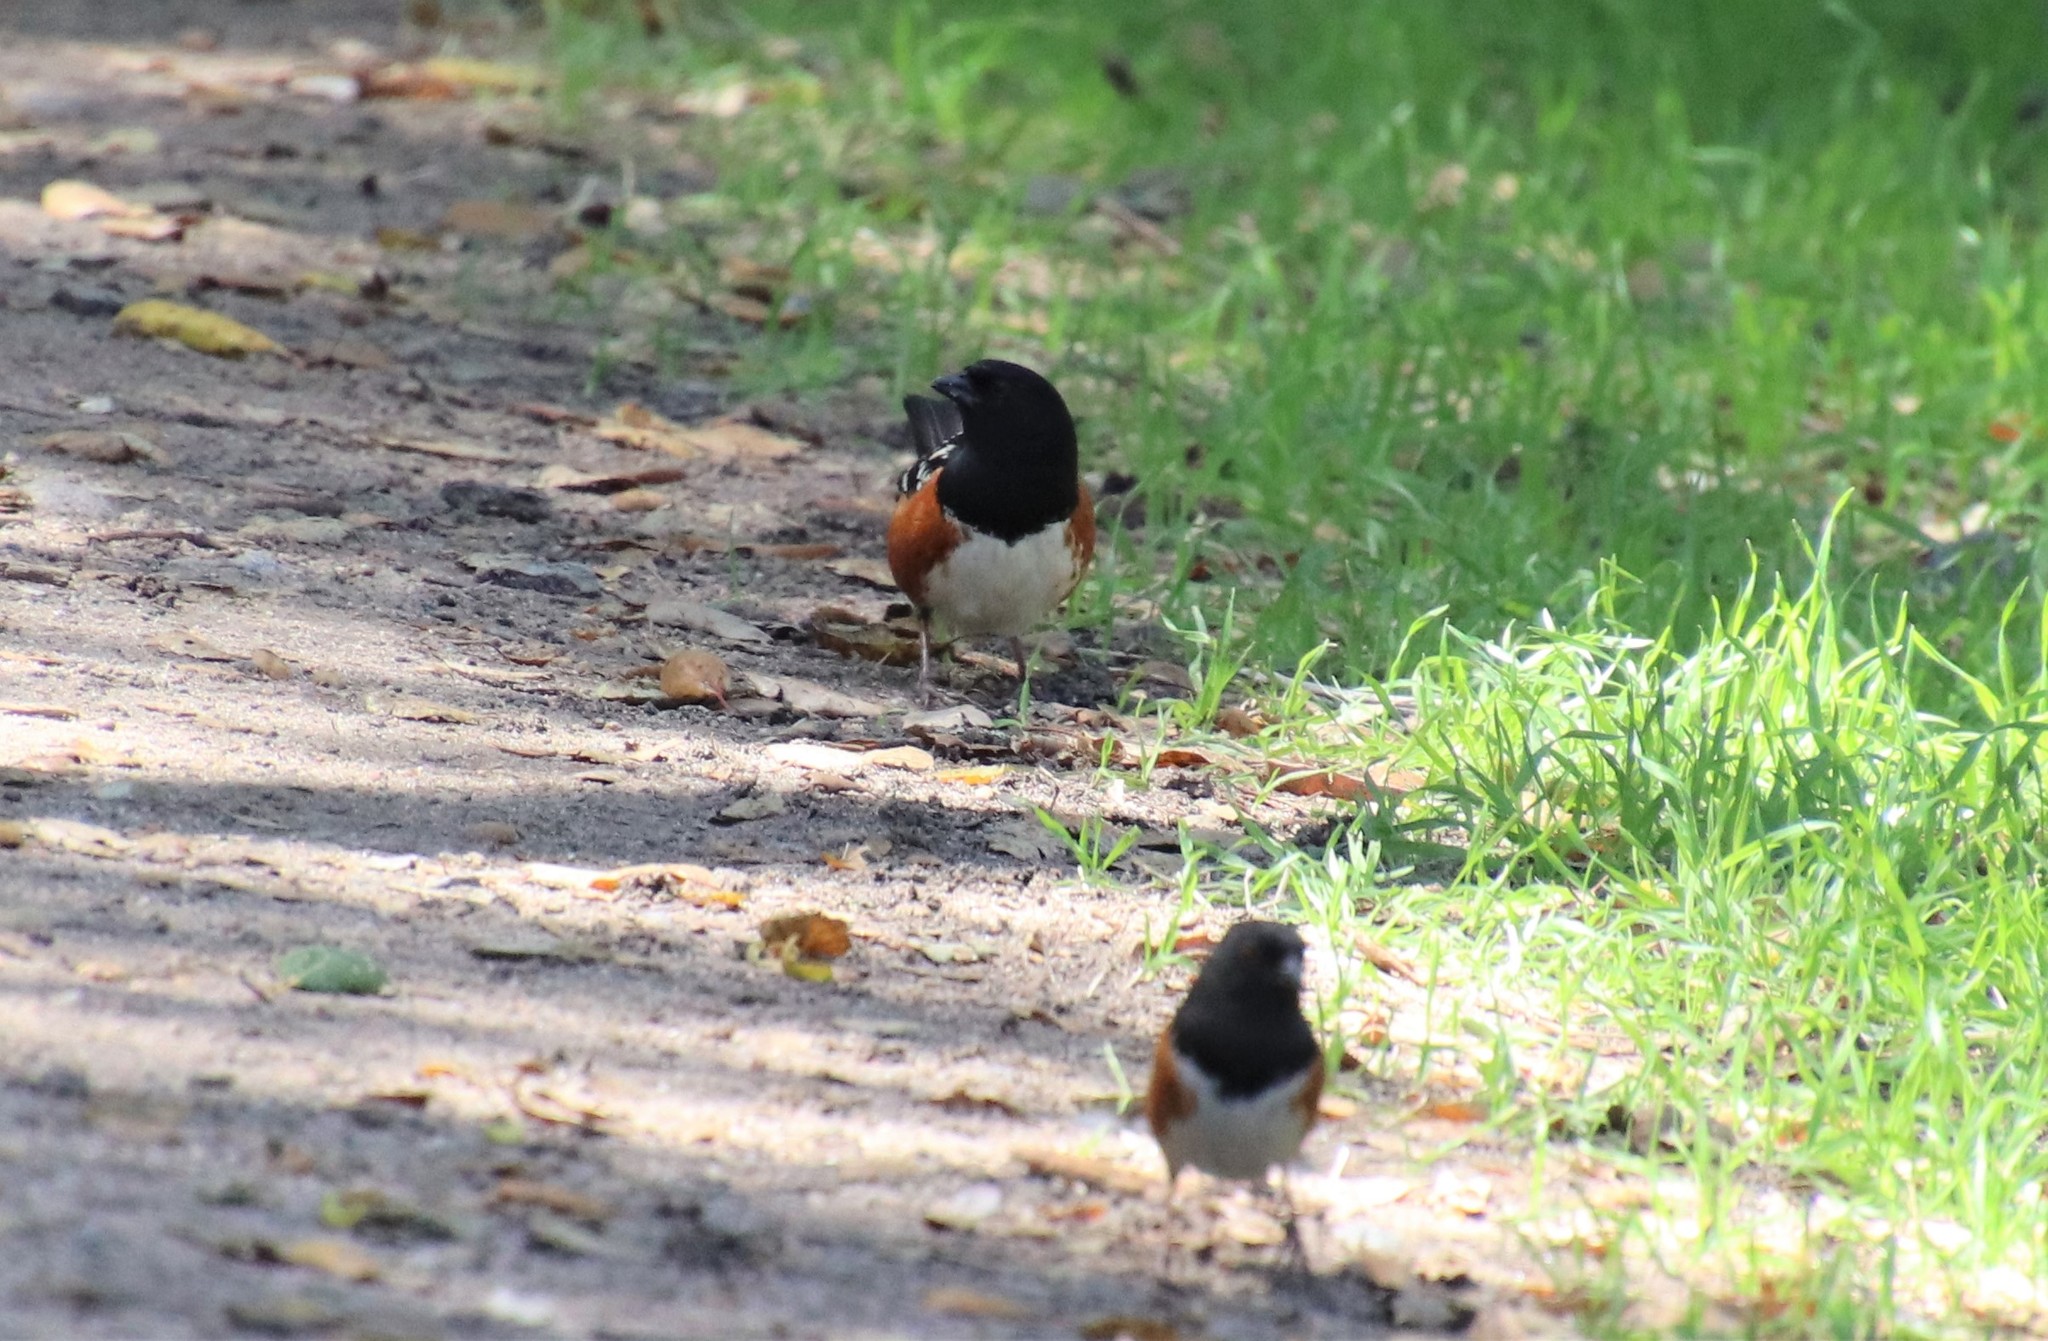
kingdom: Animalia
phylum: Chordata
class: Aves
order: Passeriformes
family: Passerellidae
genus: Pipilo
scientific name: Pipilo maculatus
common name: Spotted towhee
